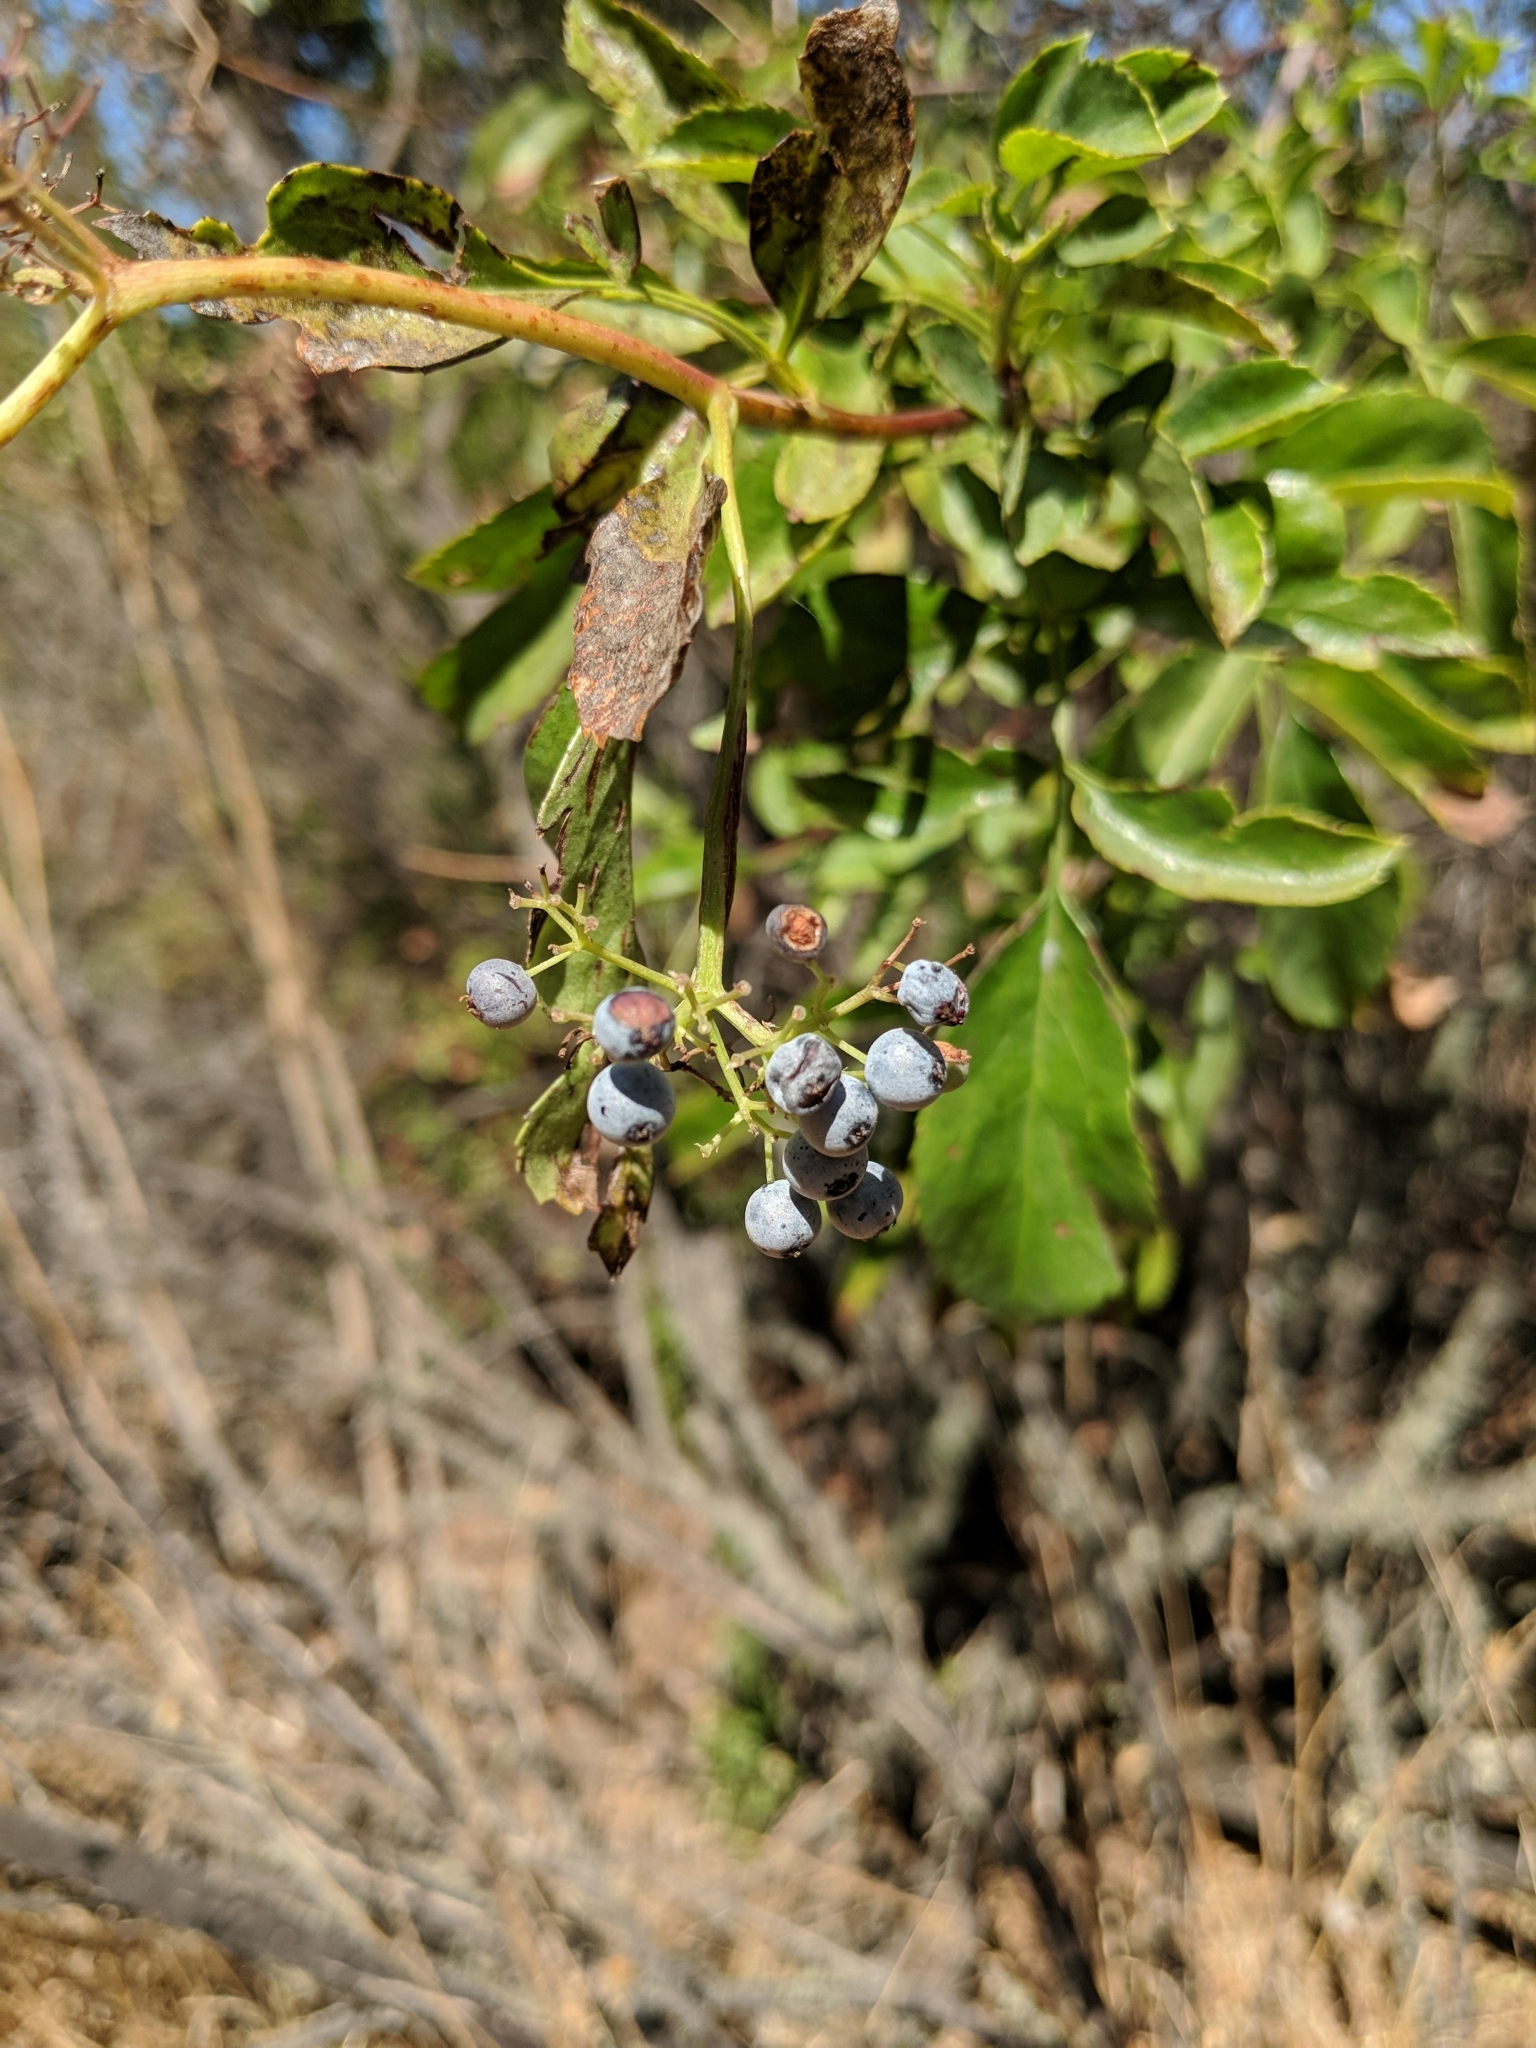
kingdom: Plantae
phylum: Tracheophyta
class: Magnoliopsida
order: Dipsacales
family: Viburnaceae
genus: Sambucus
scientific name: Sambucus cerulea
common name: Blue elder
